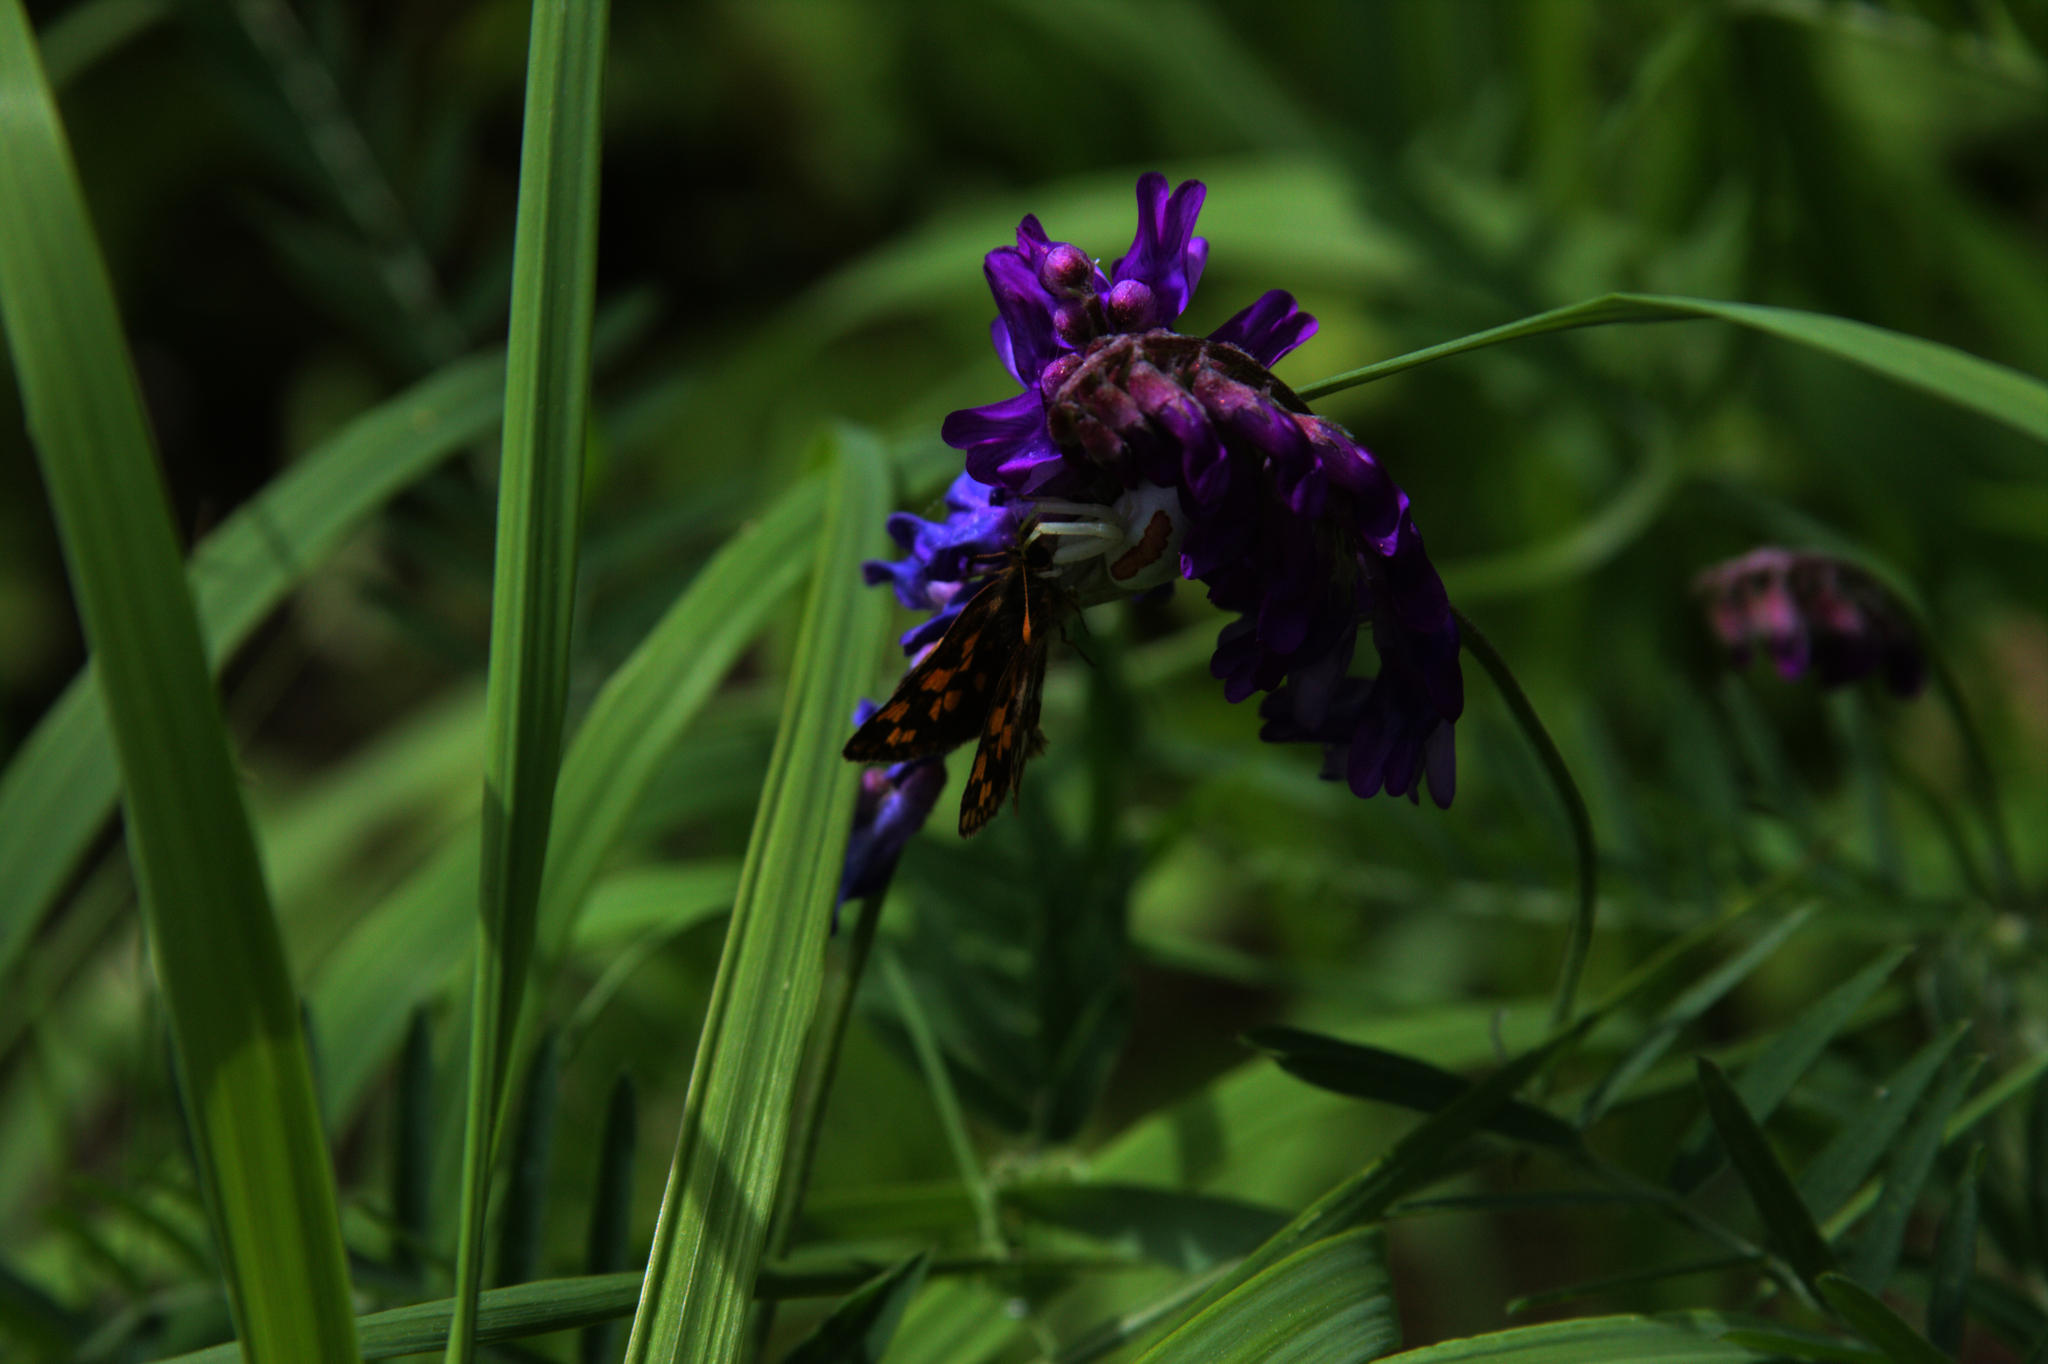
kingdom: Animalia
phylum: Arthropoda
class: Insecta
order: Lepidoptera
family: Hesperiidae
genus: Carterocephalus
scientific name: Carterocephalus mandan
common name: Arctic skipperling
